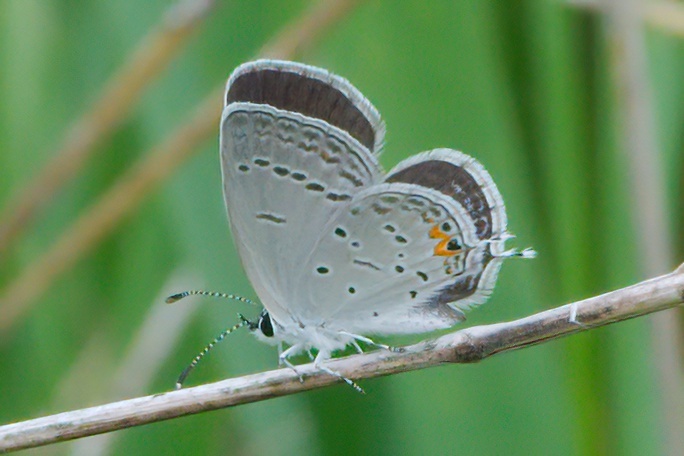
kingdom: Animalia
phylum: Arthropoda
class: Insecta
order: Lepidoptera
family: Lycaenidae
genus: Elkalyce
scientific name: Elkalyce comyntas
